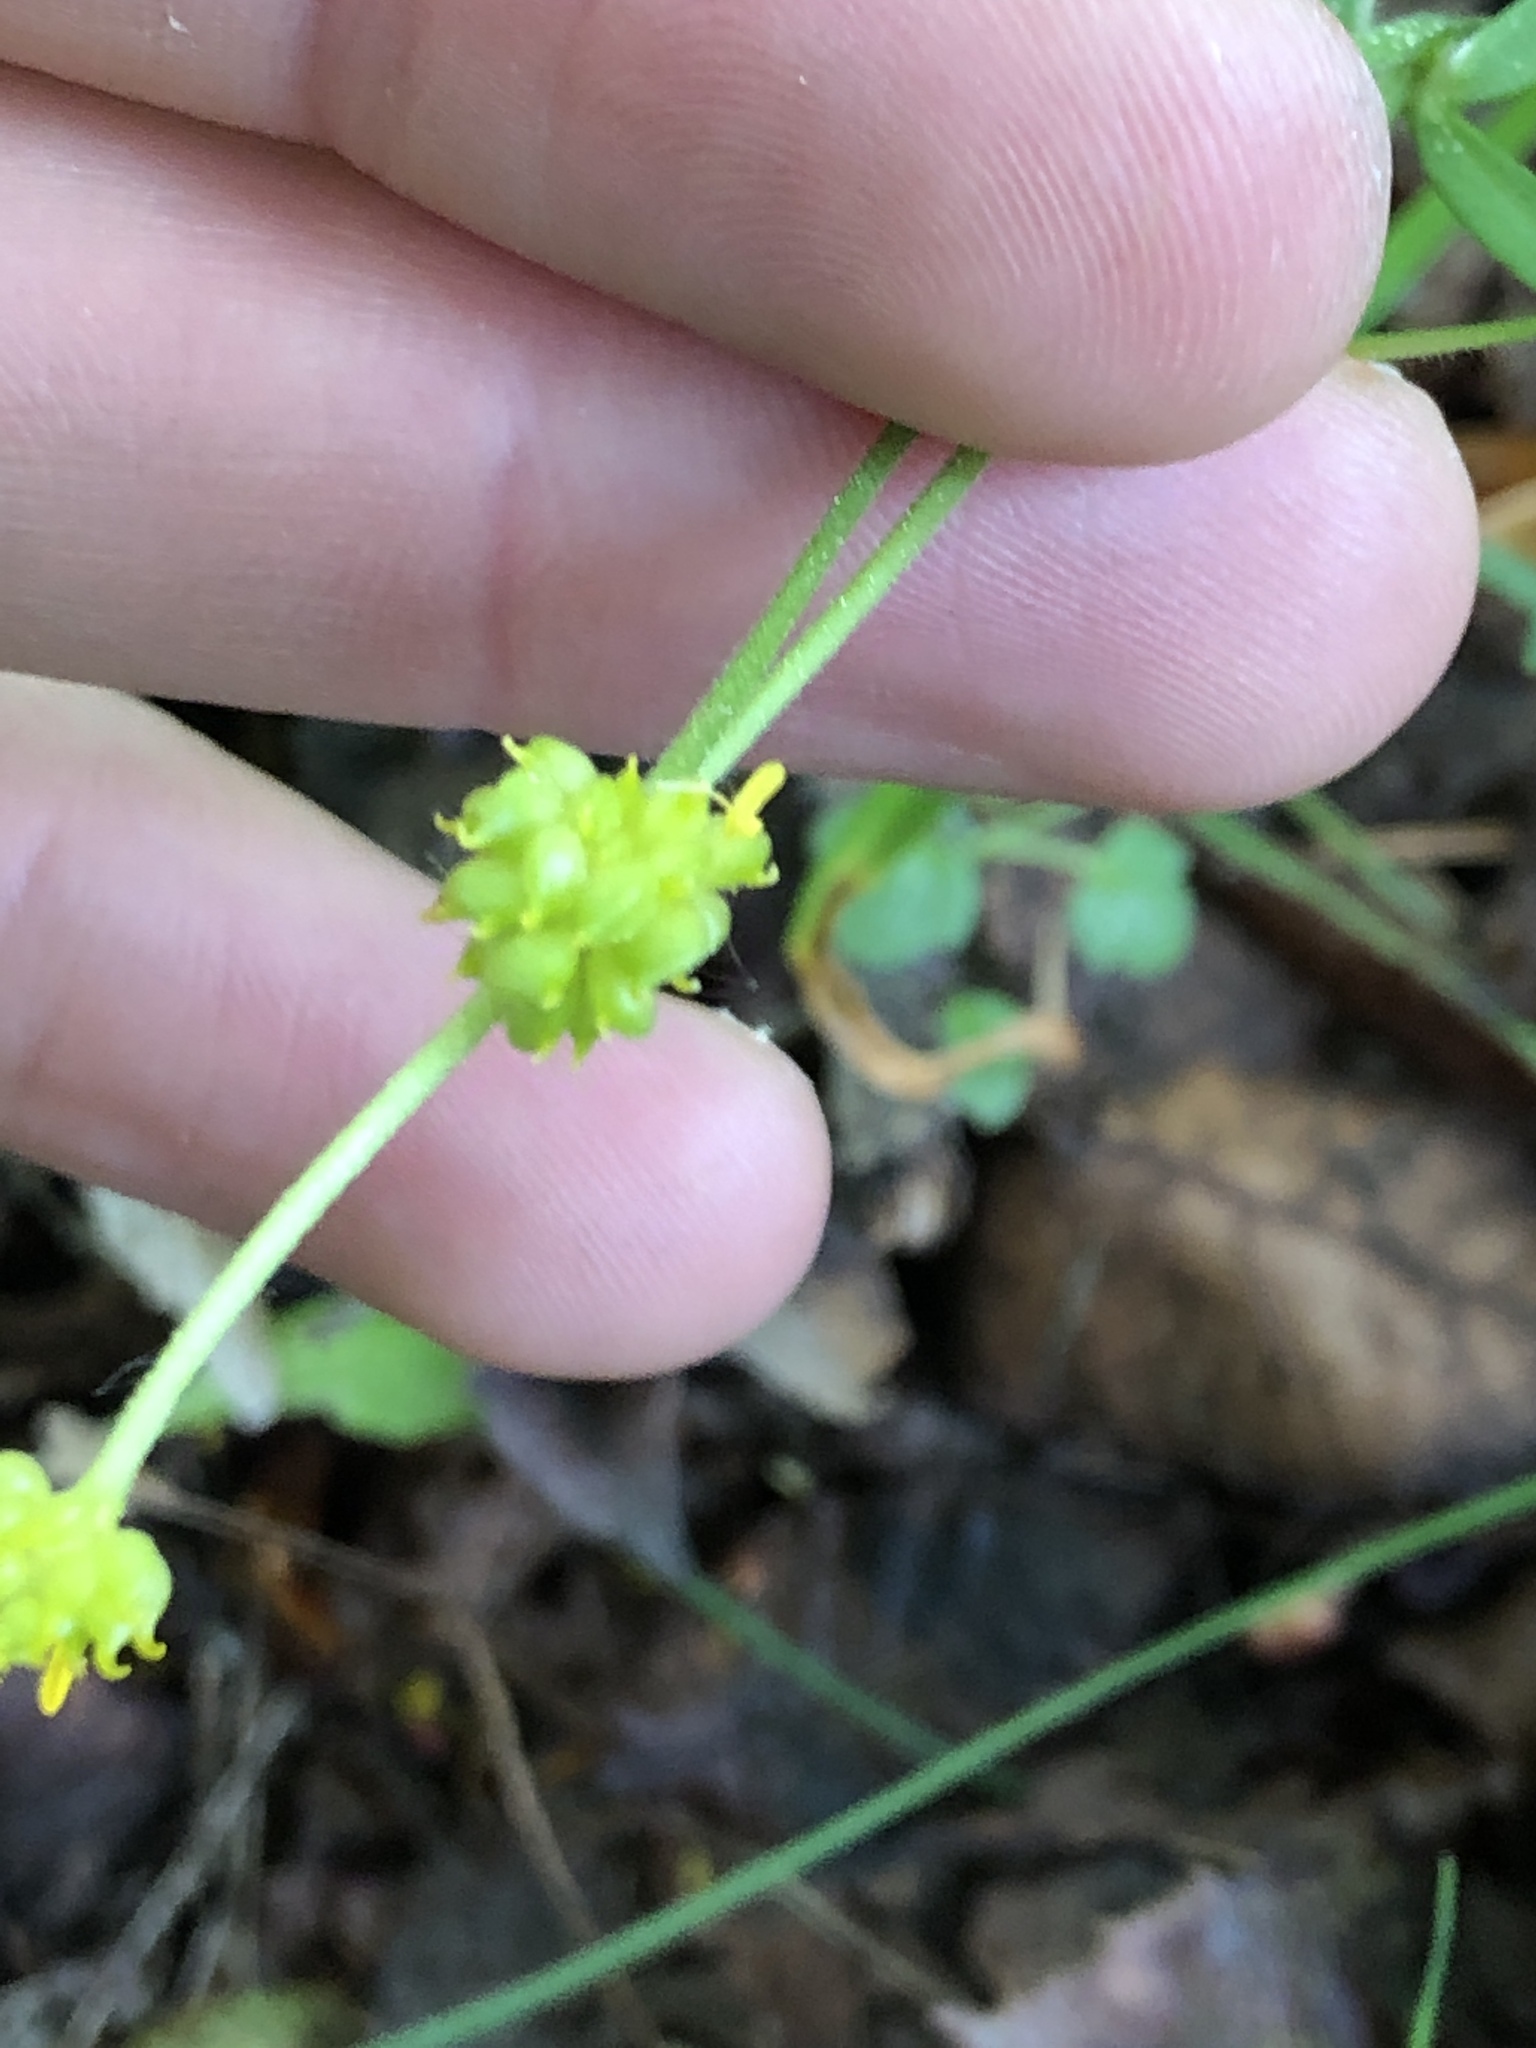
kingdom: Plantae
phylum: Tracheophyta
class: Magnoliopsida
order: Ranunculales
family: Ranunculaceae
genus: Ranunculus
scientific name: Ranunculus auricomus
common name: Goldilocks buttercup
